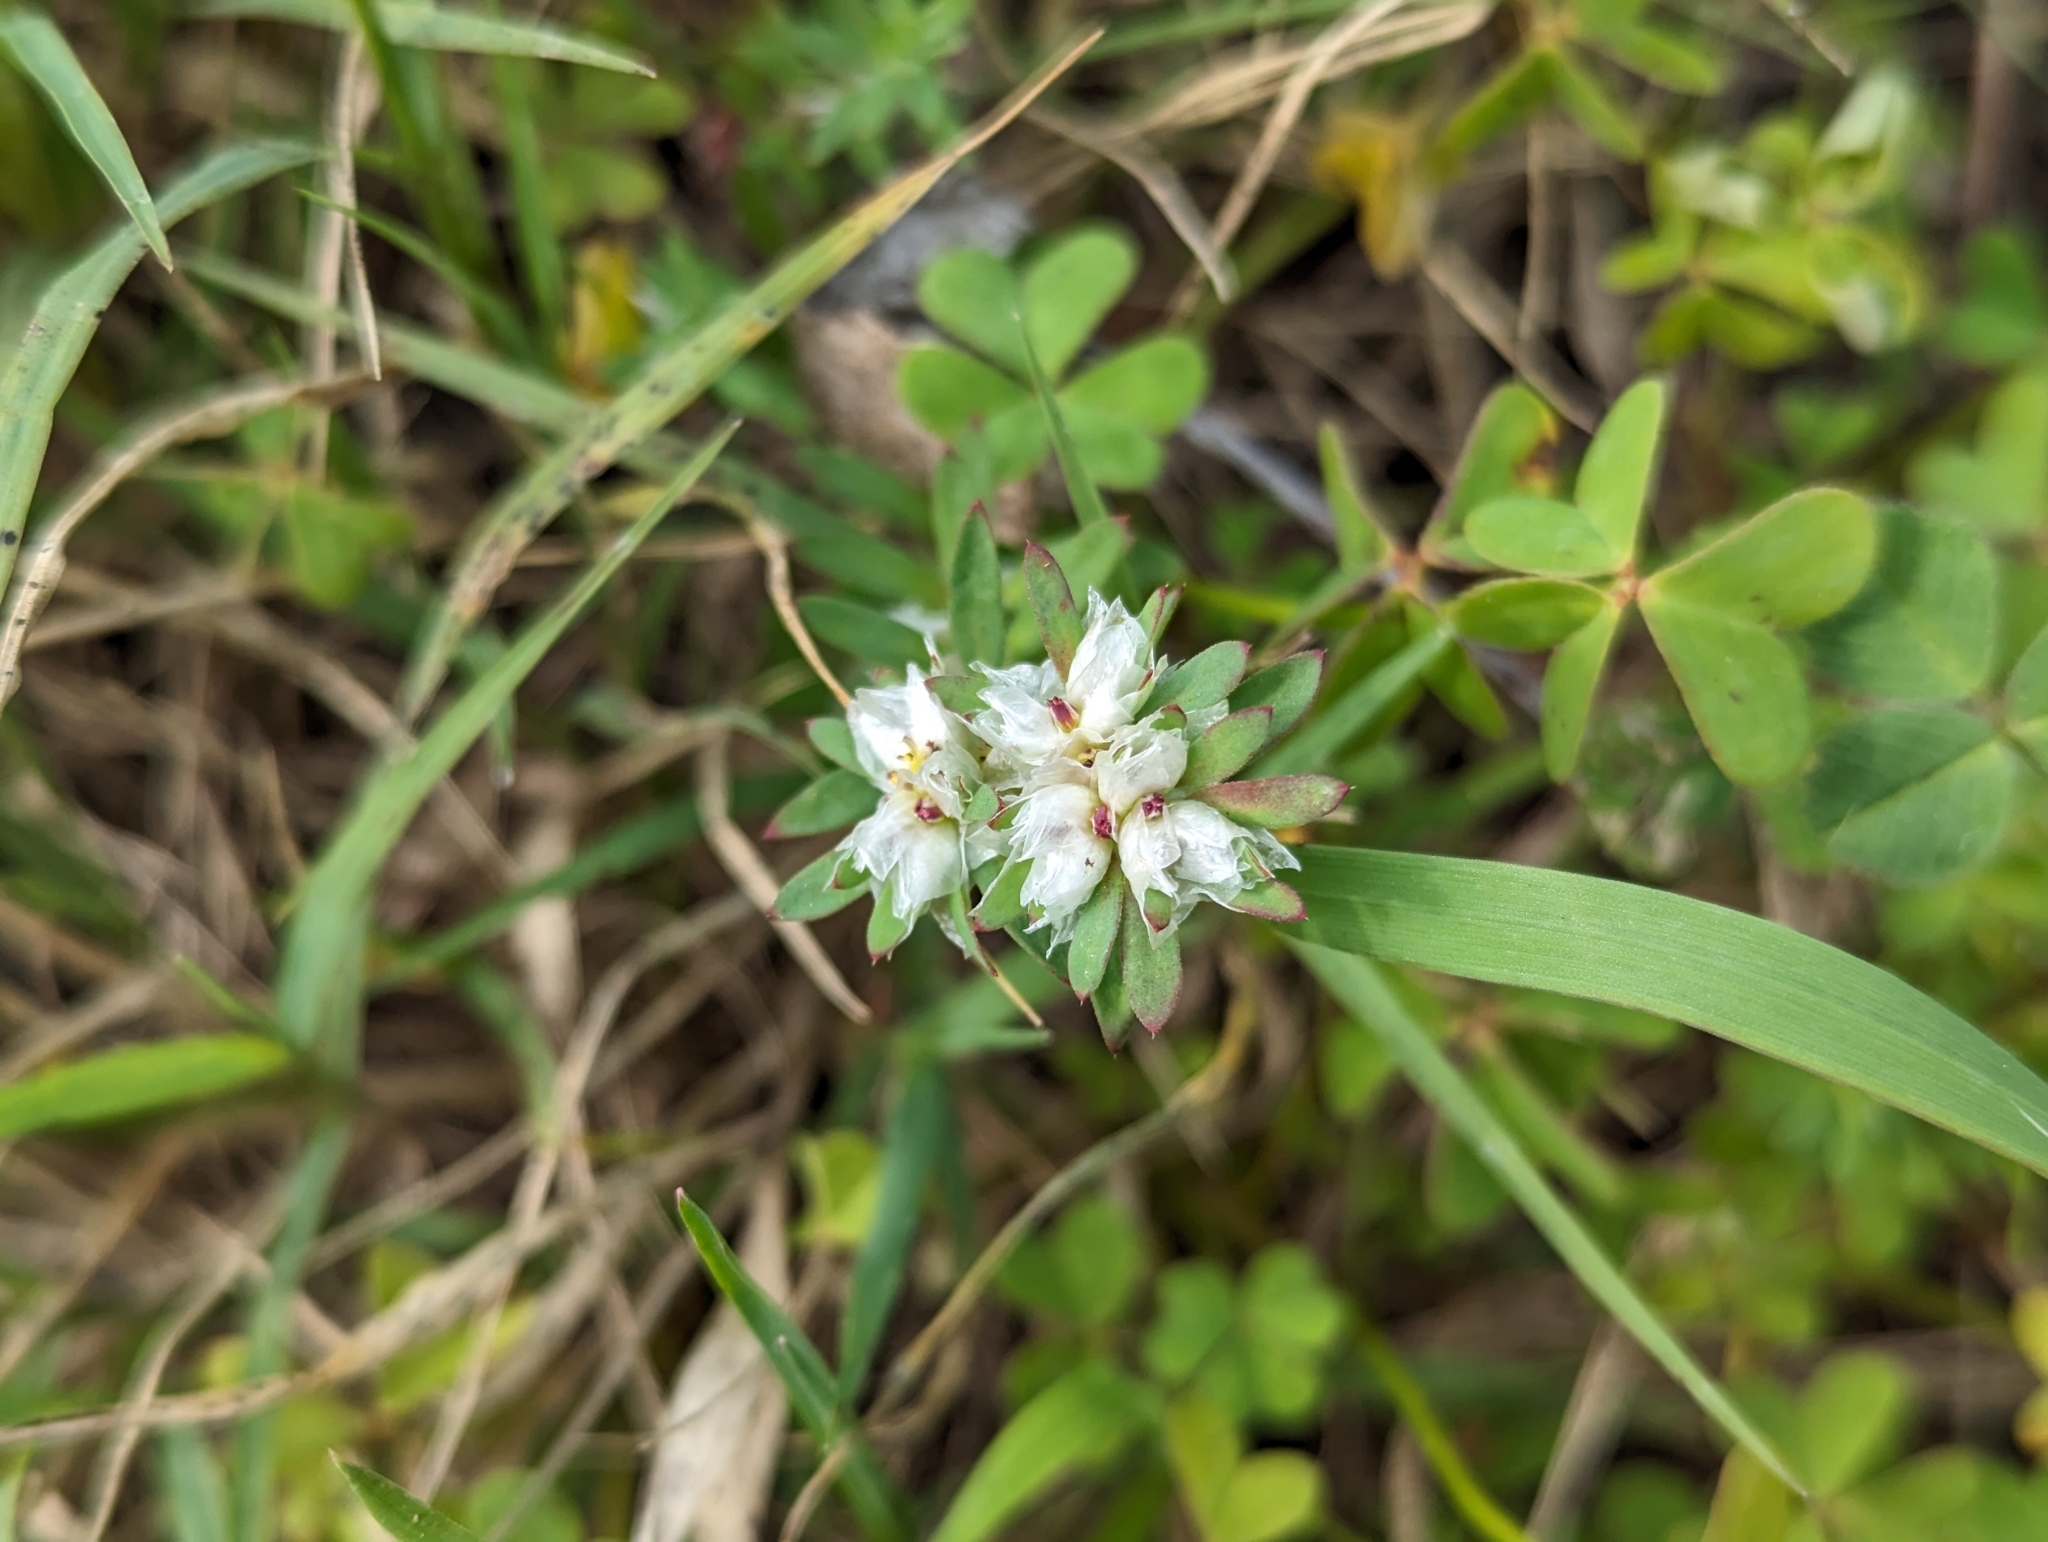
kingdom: Plantae
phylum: Tracheophyta
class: Magnoliopsida
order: Caryophyllales
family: Caryophyllaceae
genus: Paronychia
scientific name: Paronychia argentea
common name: Silver nailroot
